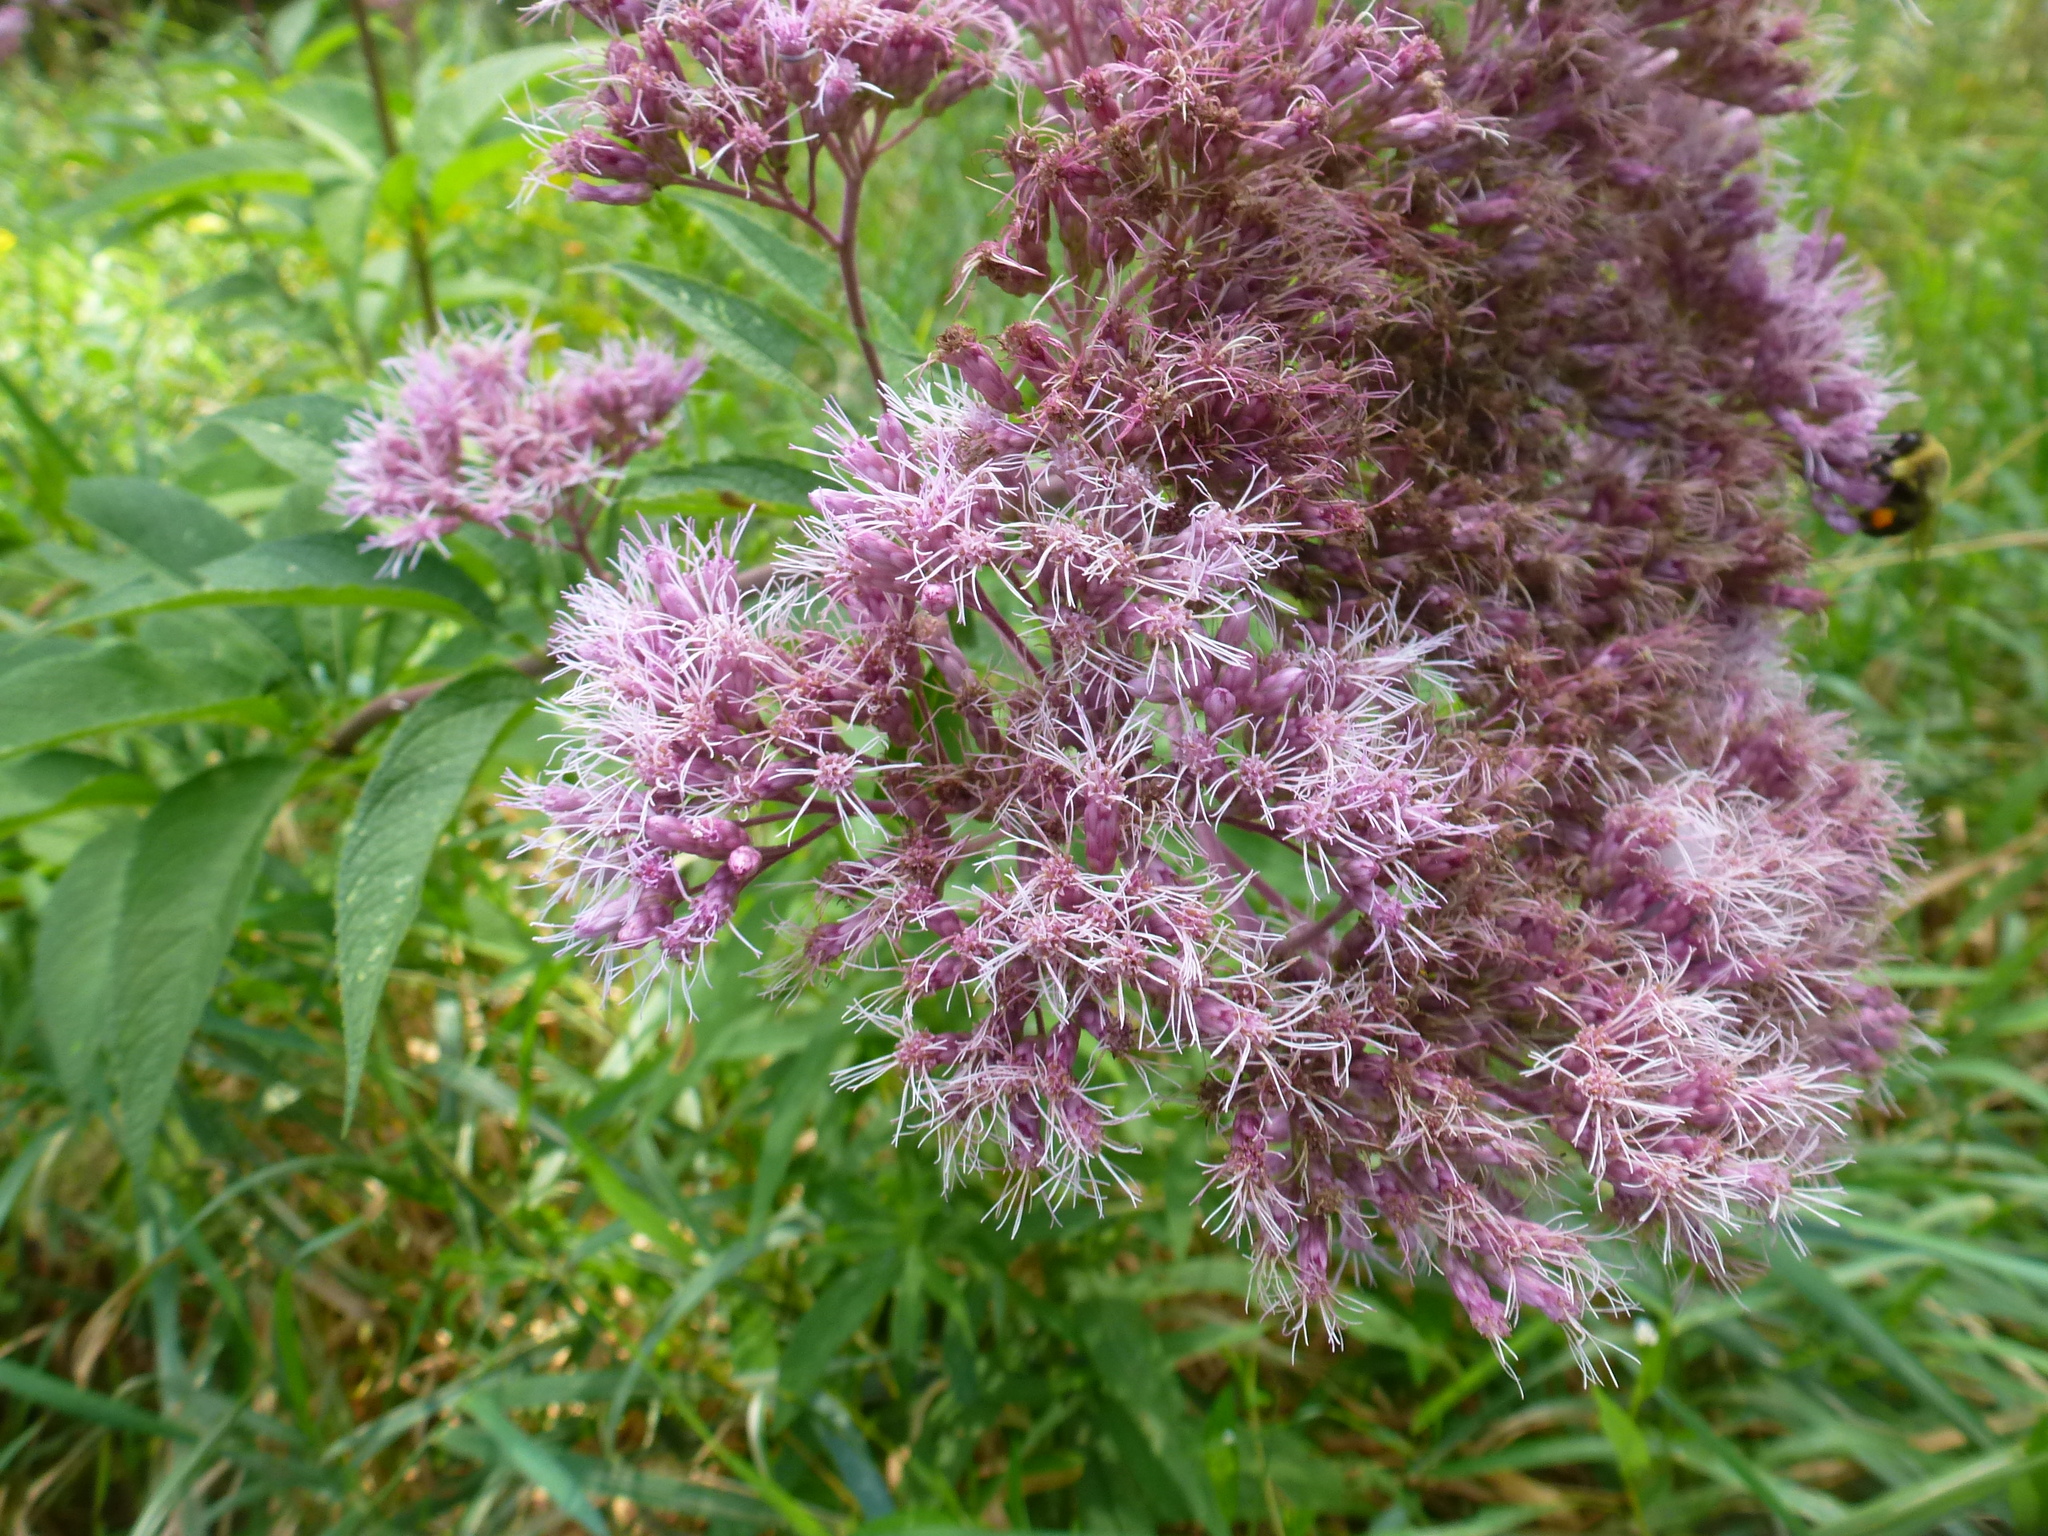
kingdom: Plantae
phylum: Tracheophyta
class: Magnoliopsida
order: Asterales
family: Asteraceae
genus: Eutrochium
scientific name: Eutrochium maculatum
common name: Spotted joe pye weed
